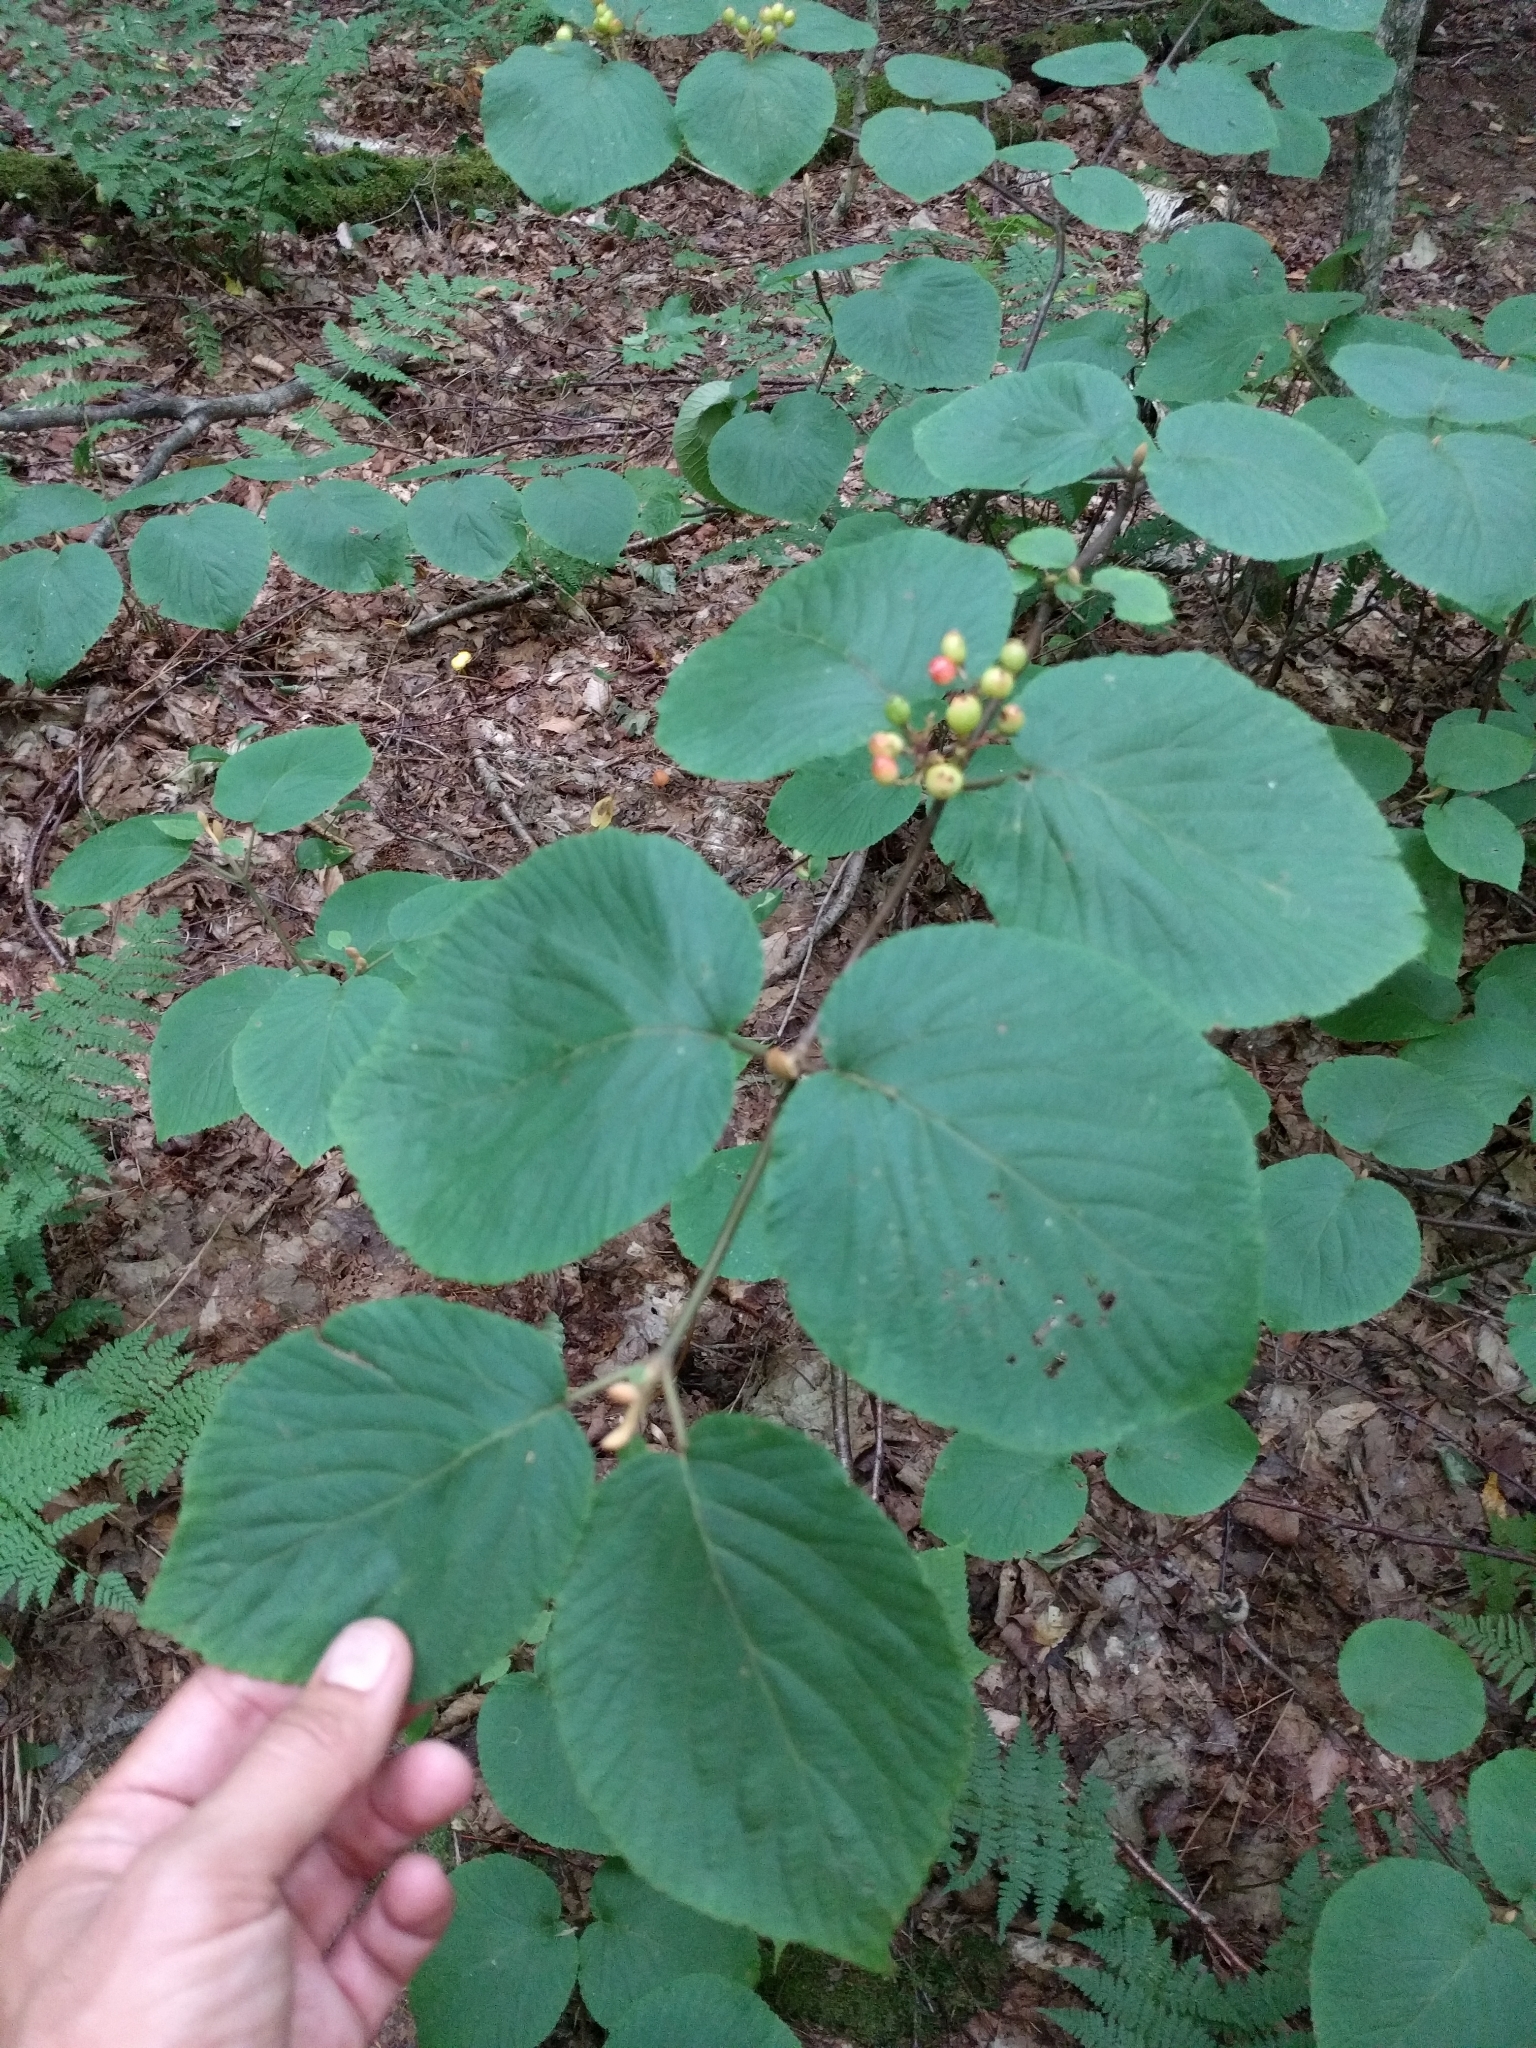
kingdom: Plantae
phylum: Tracheophyta
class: Magnoliopsida
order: Dipsacales
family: Viburnaceae
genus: Viburnum
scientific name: Viburnum lantanoides
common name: Hobblebush
